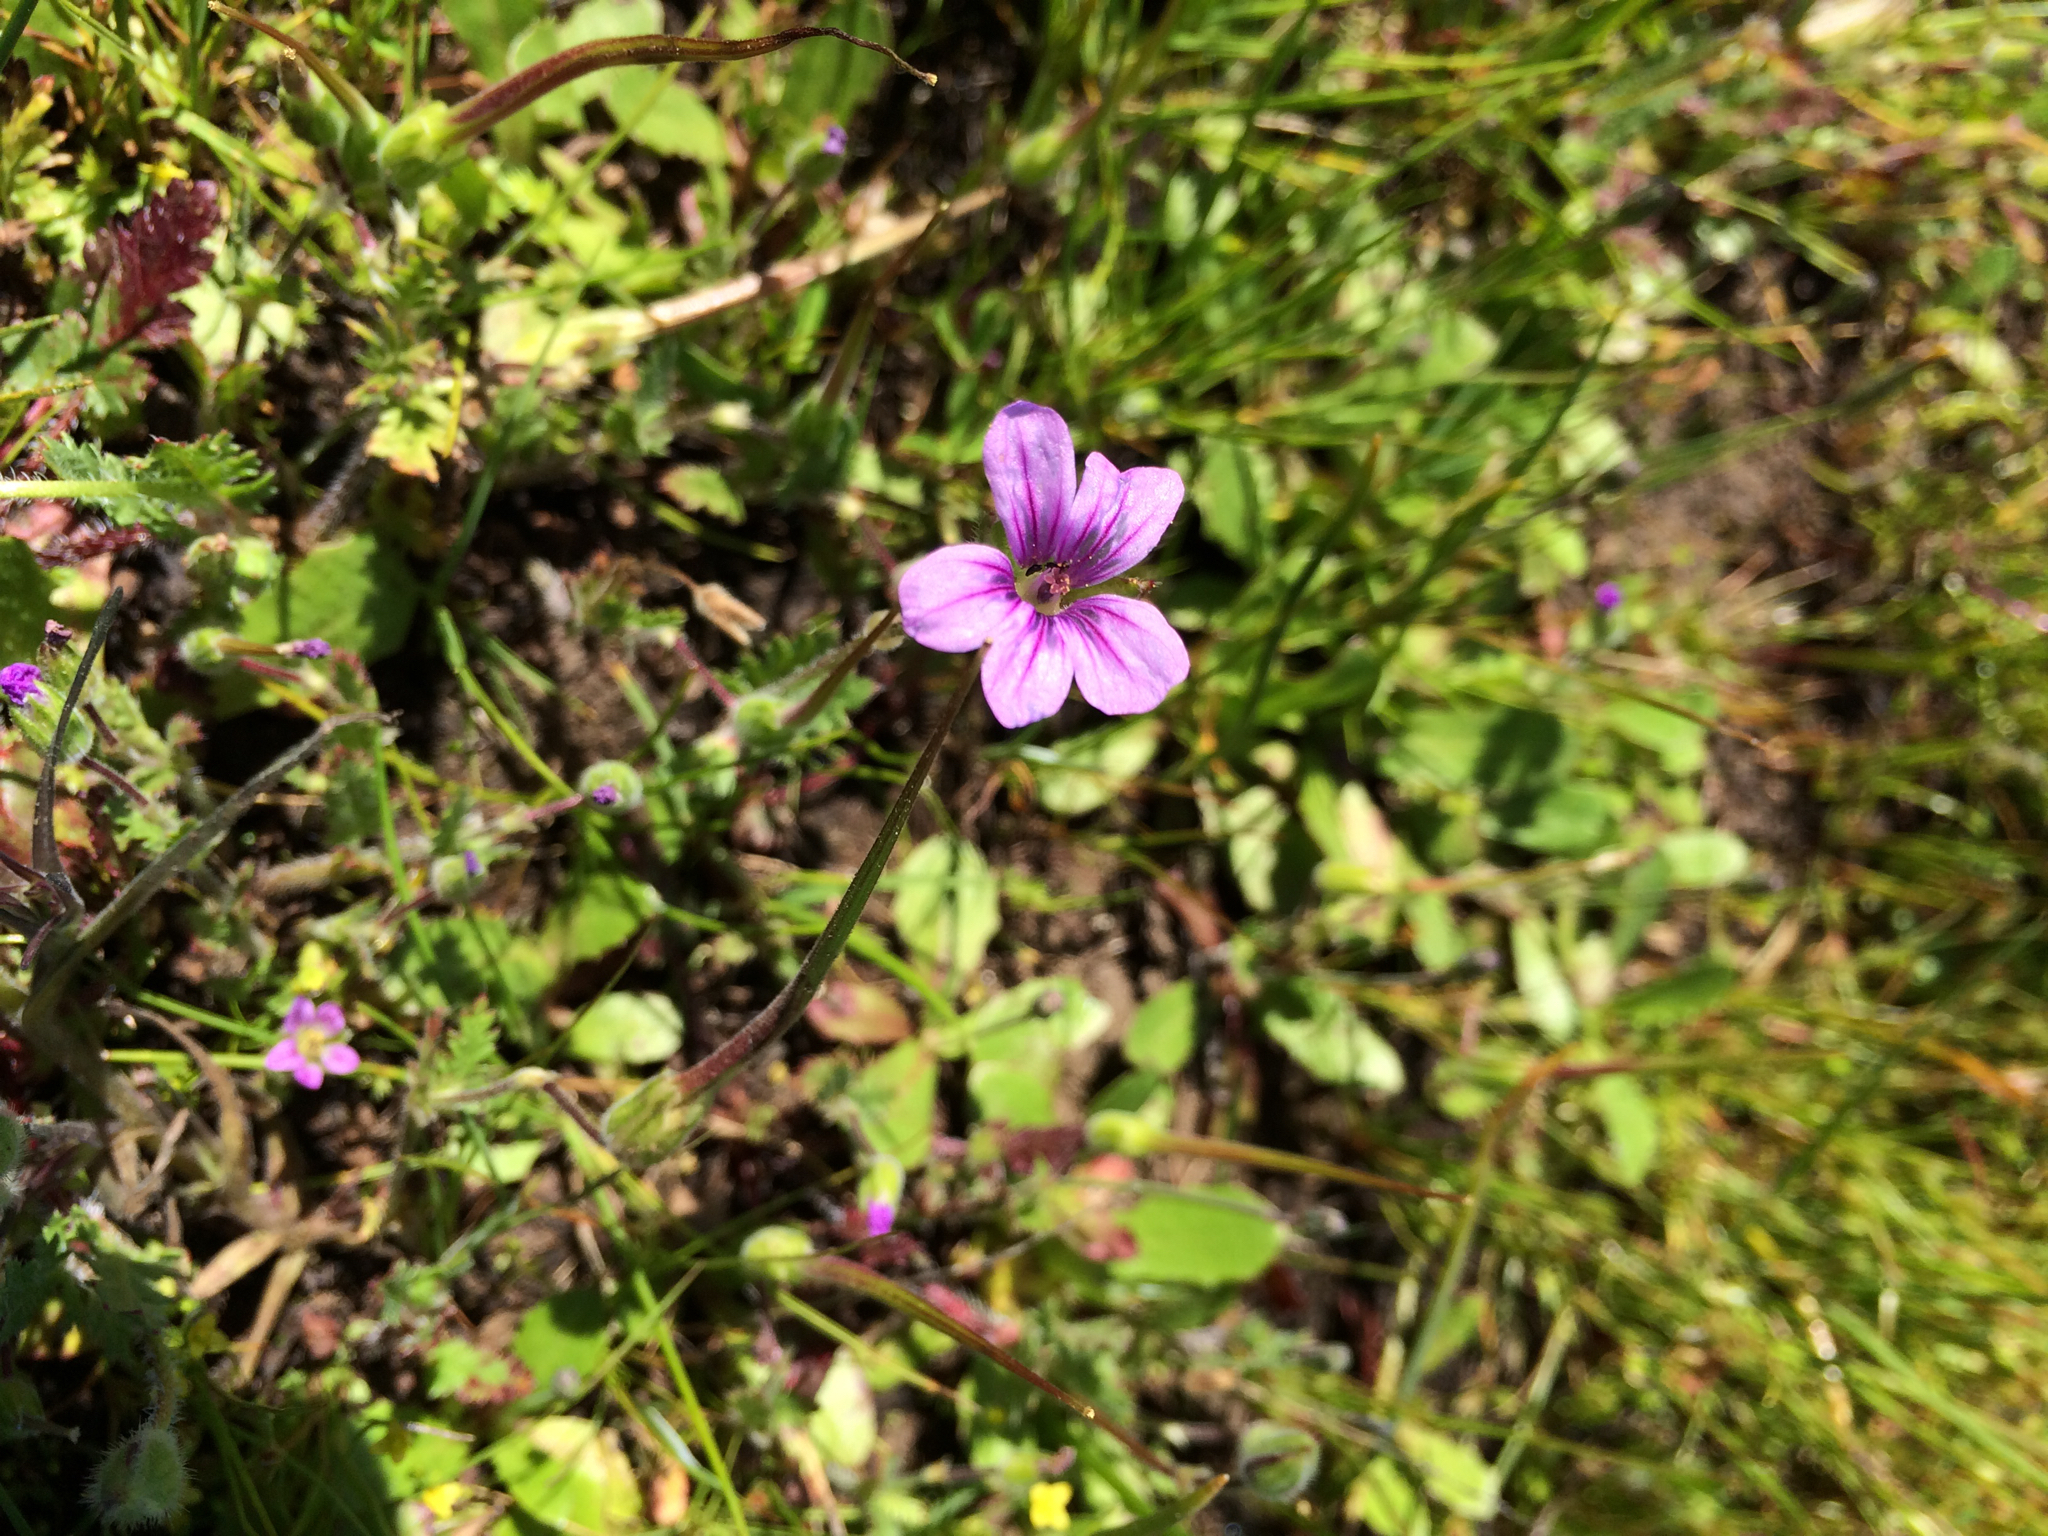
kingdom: Plantae
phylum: Tracheophyta
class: Magnoliopsida
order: Geraniales
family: Geraniaceae
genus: Erodium
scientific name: Erodium botrys
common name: Mediterranean stork's-bill
